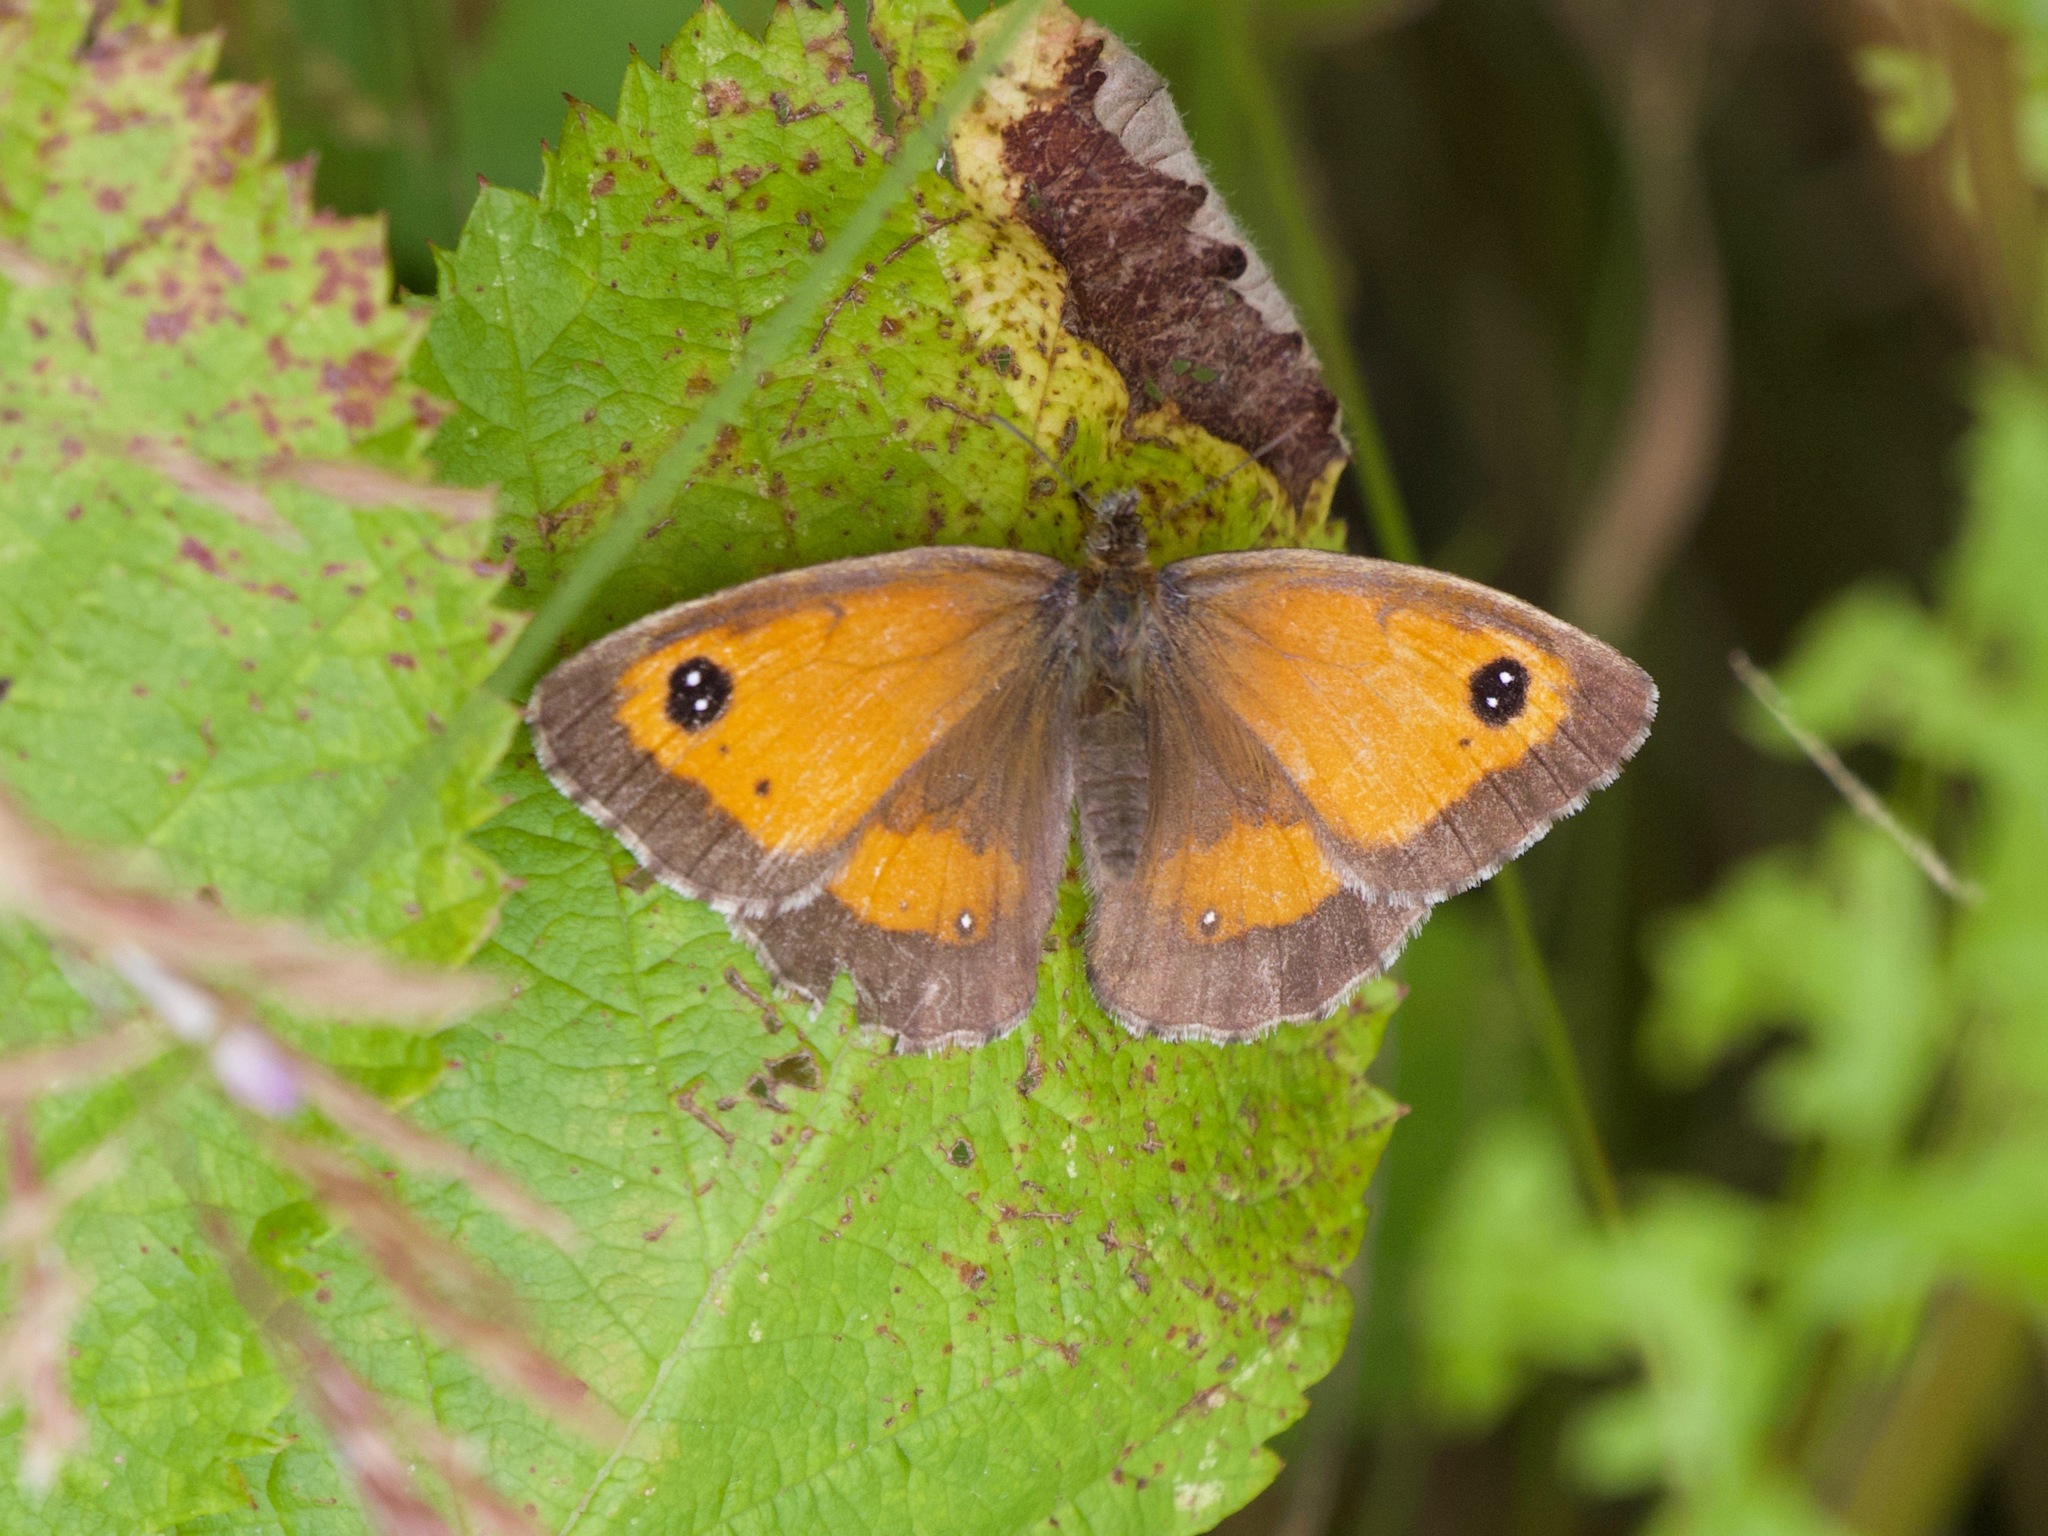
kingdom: Animalia
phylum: Arthropoda
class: Insecta
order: Lepidoptera
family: Nymphalidae
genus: Pyronia
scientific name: Pyronia tithonus
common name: Gatekeeper
